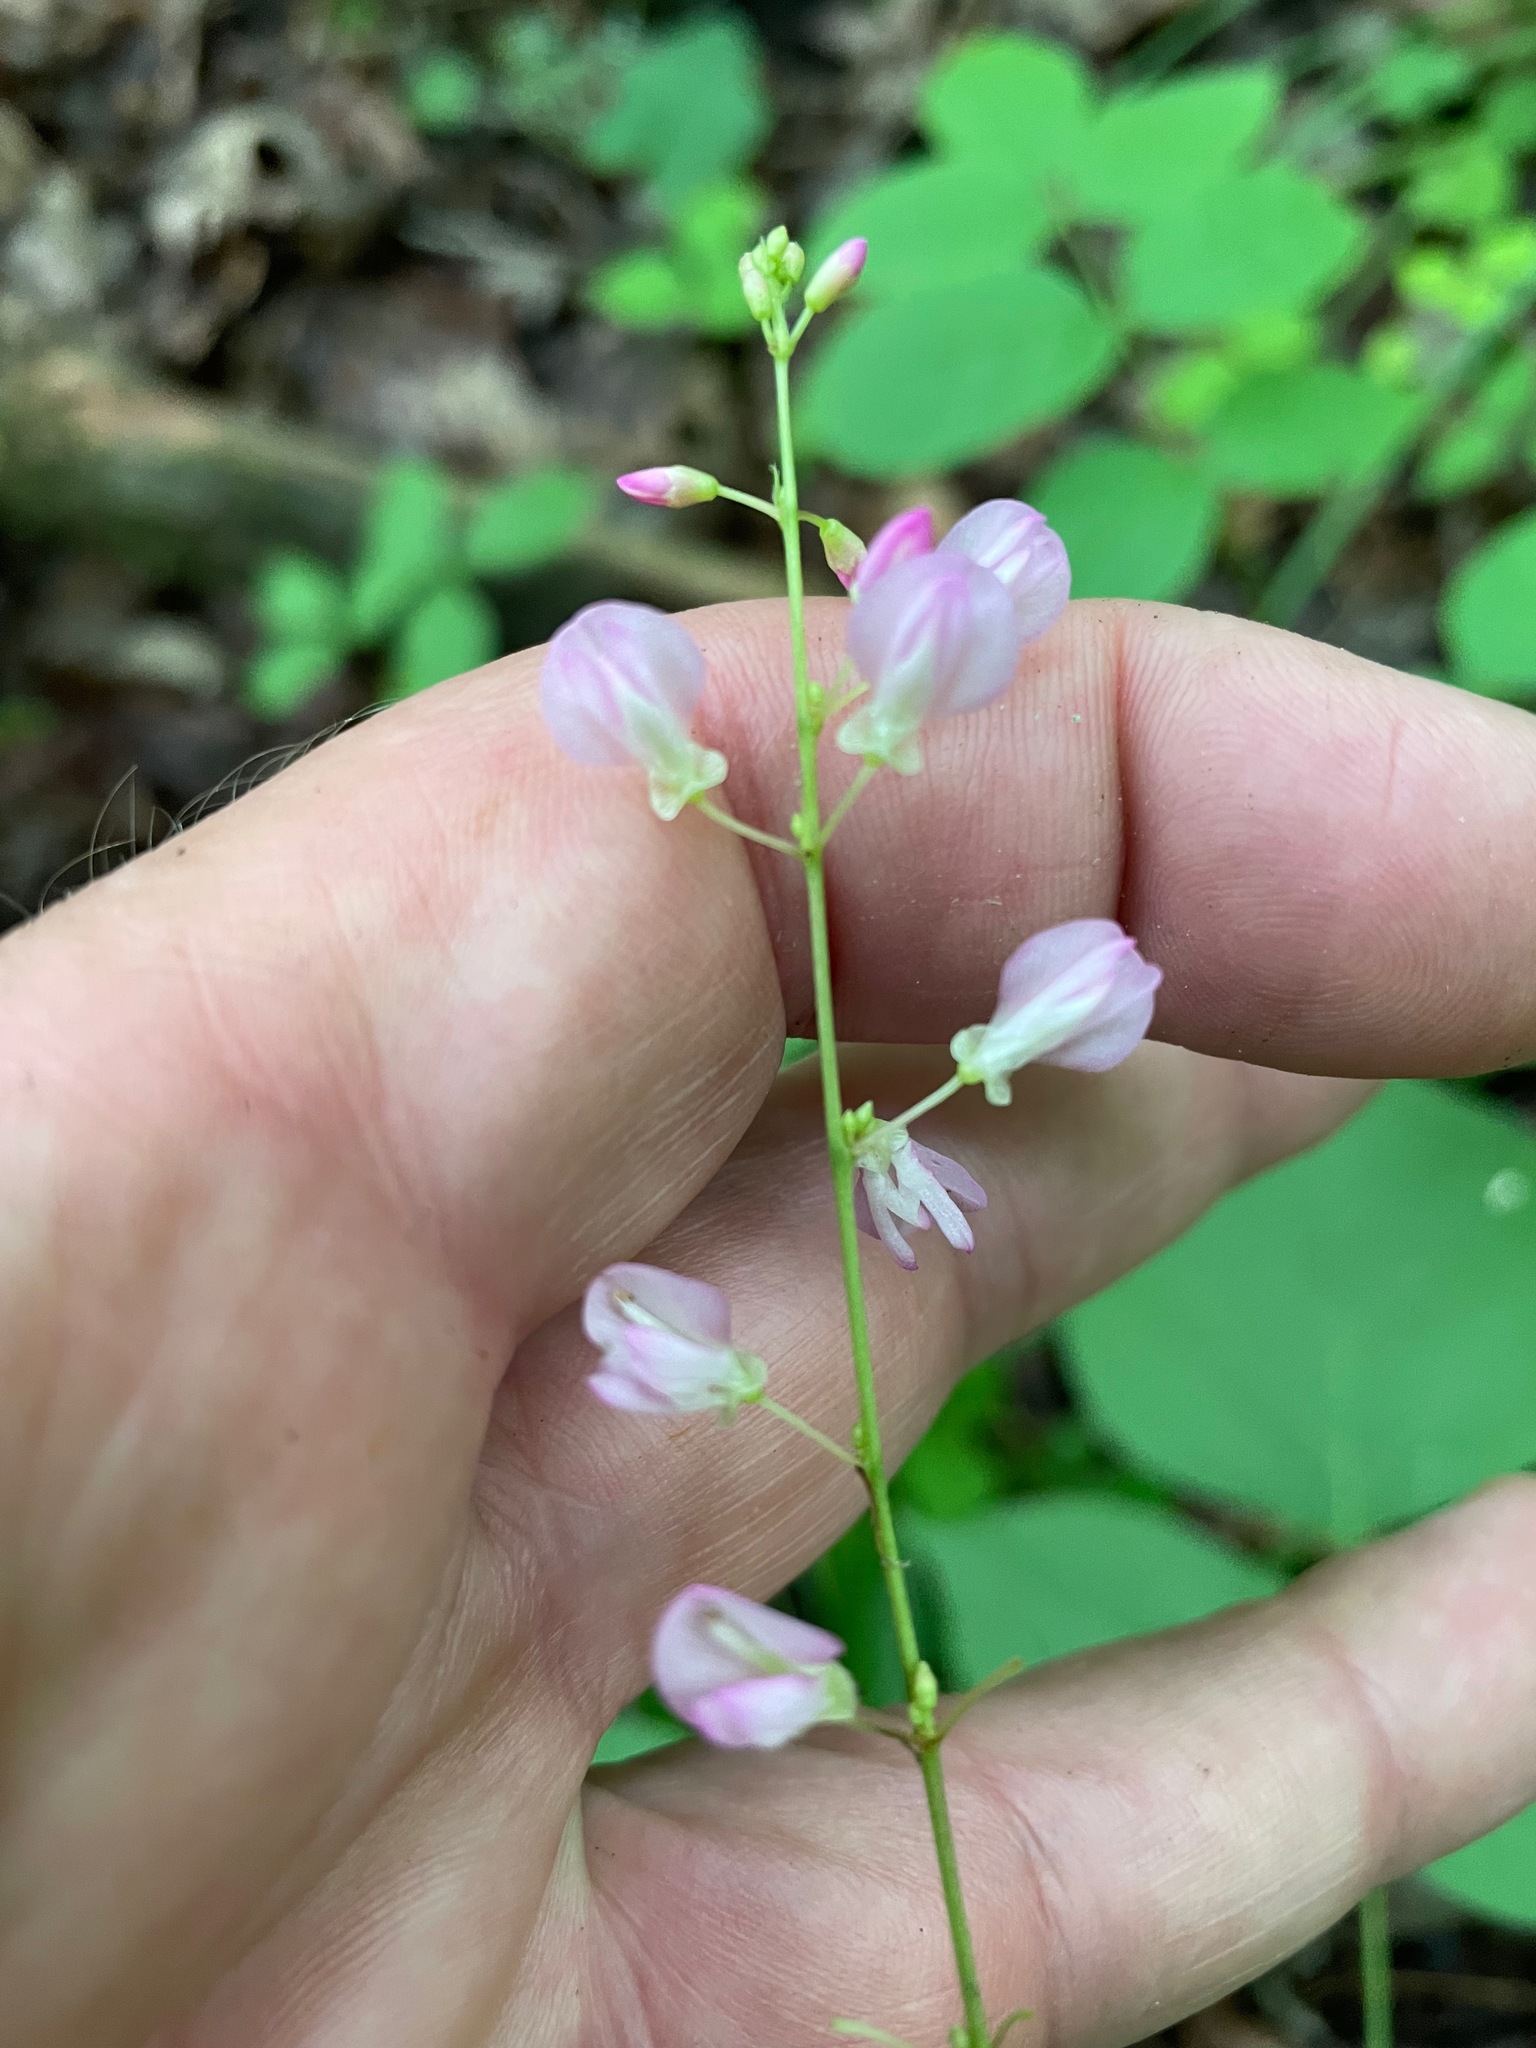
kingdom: Plantae
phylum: Tracheophyta
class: Magnoliopsida
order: Fabales
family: Fabaceae
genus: Hylodesmum
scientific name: Hylodesmum glutinosum
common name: Clustered-leaved tick-trefoil
